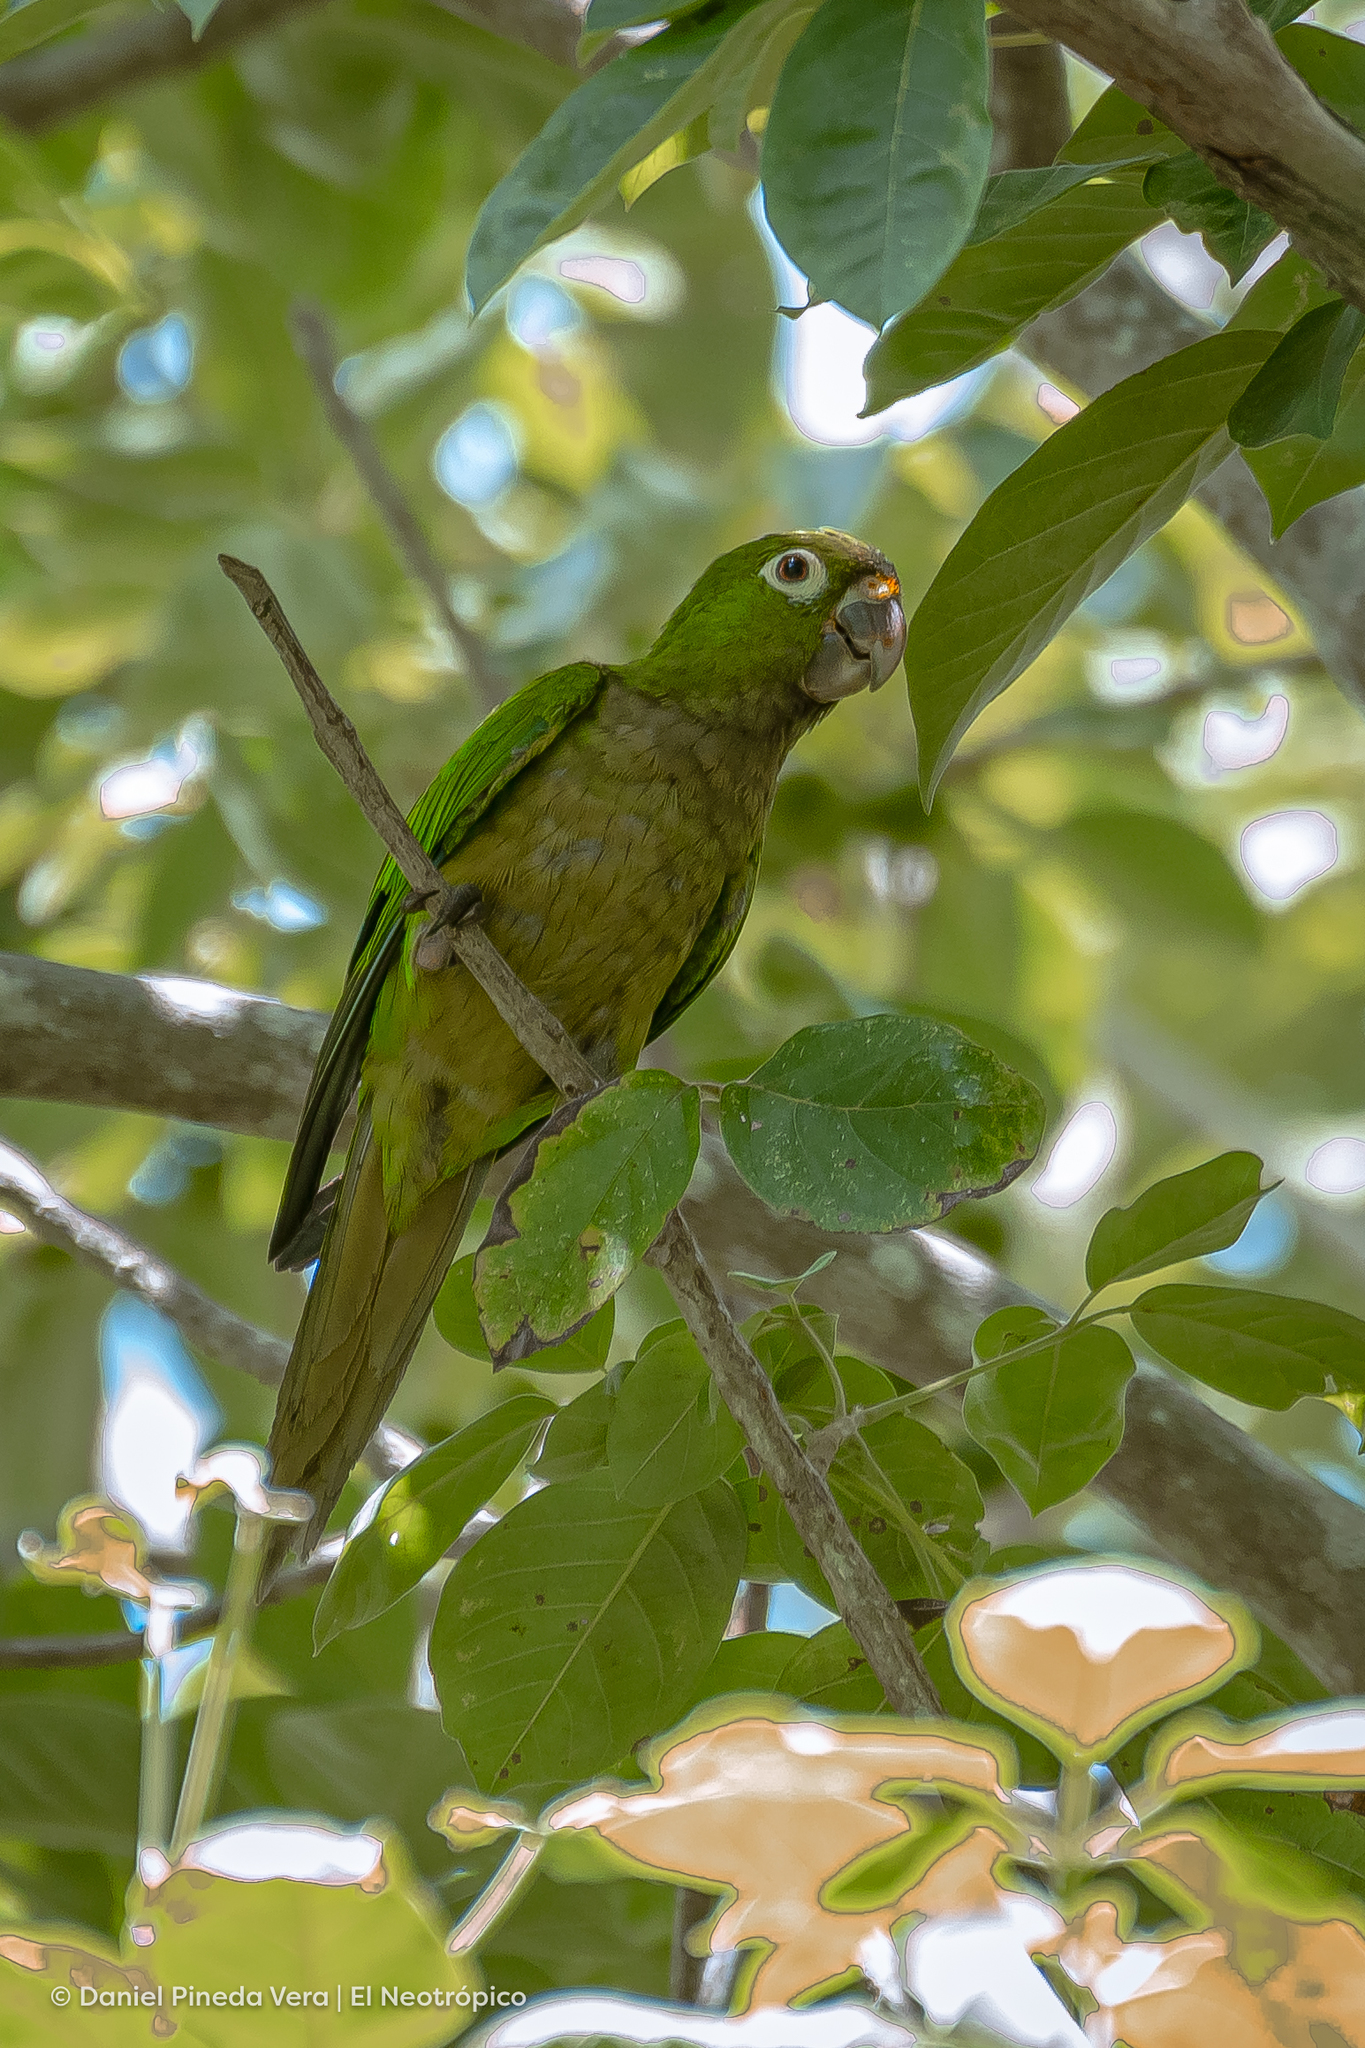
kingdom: Animalia
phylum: Chordata
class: Aves
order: Psittaciformes
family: Psittacidae
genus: Aratinga
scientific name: Aratinga nana
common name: Olive-throated parakeet
